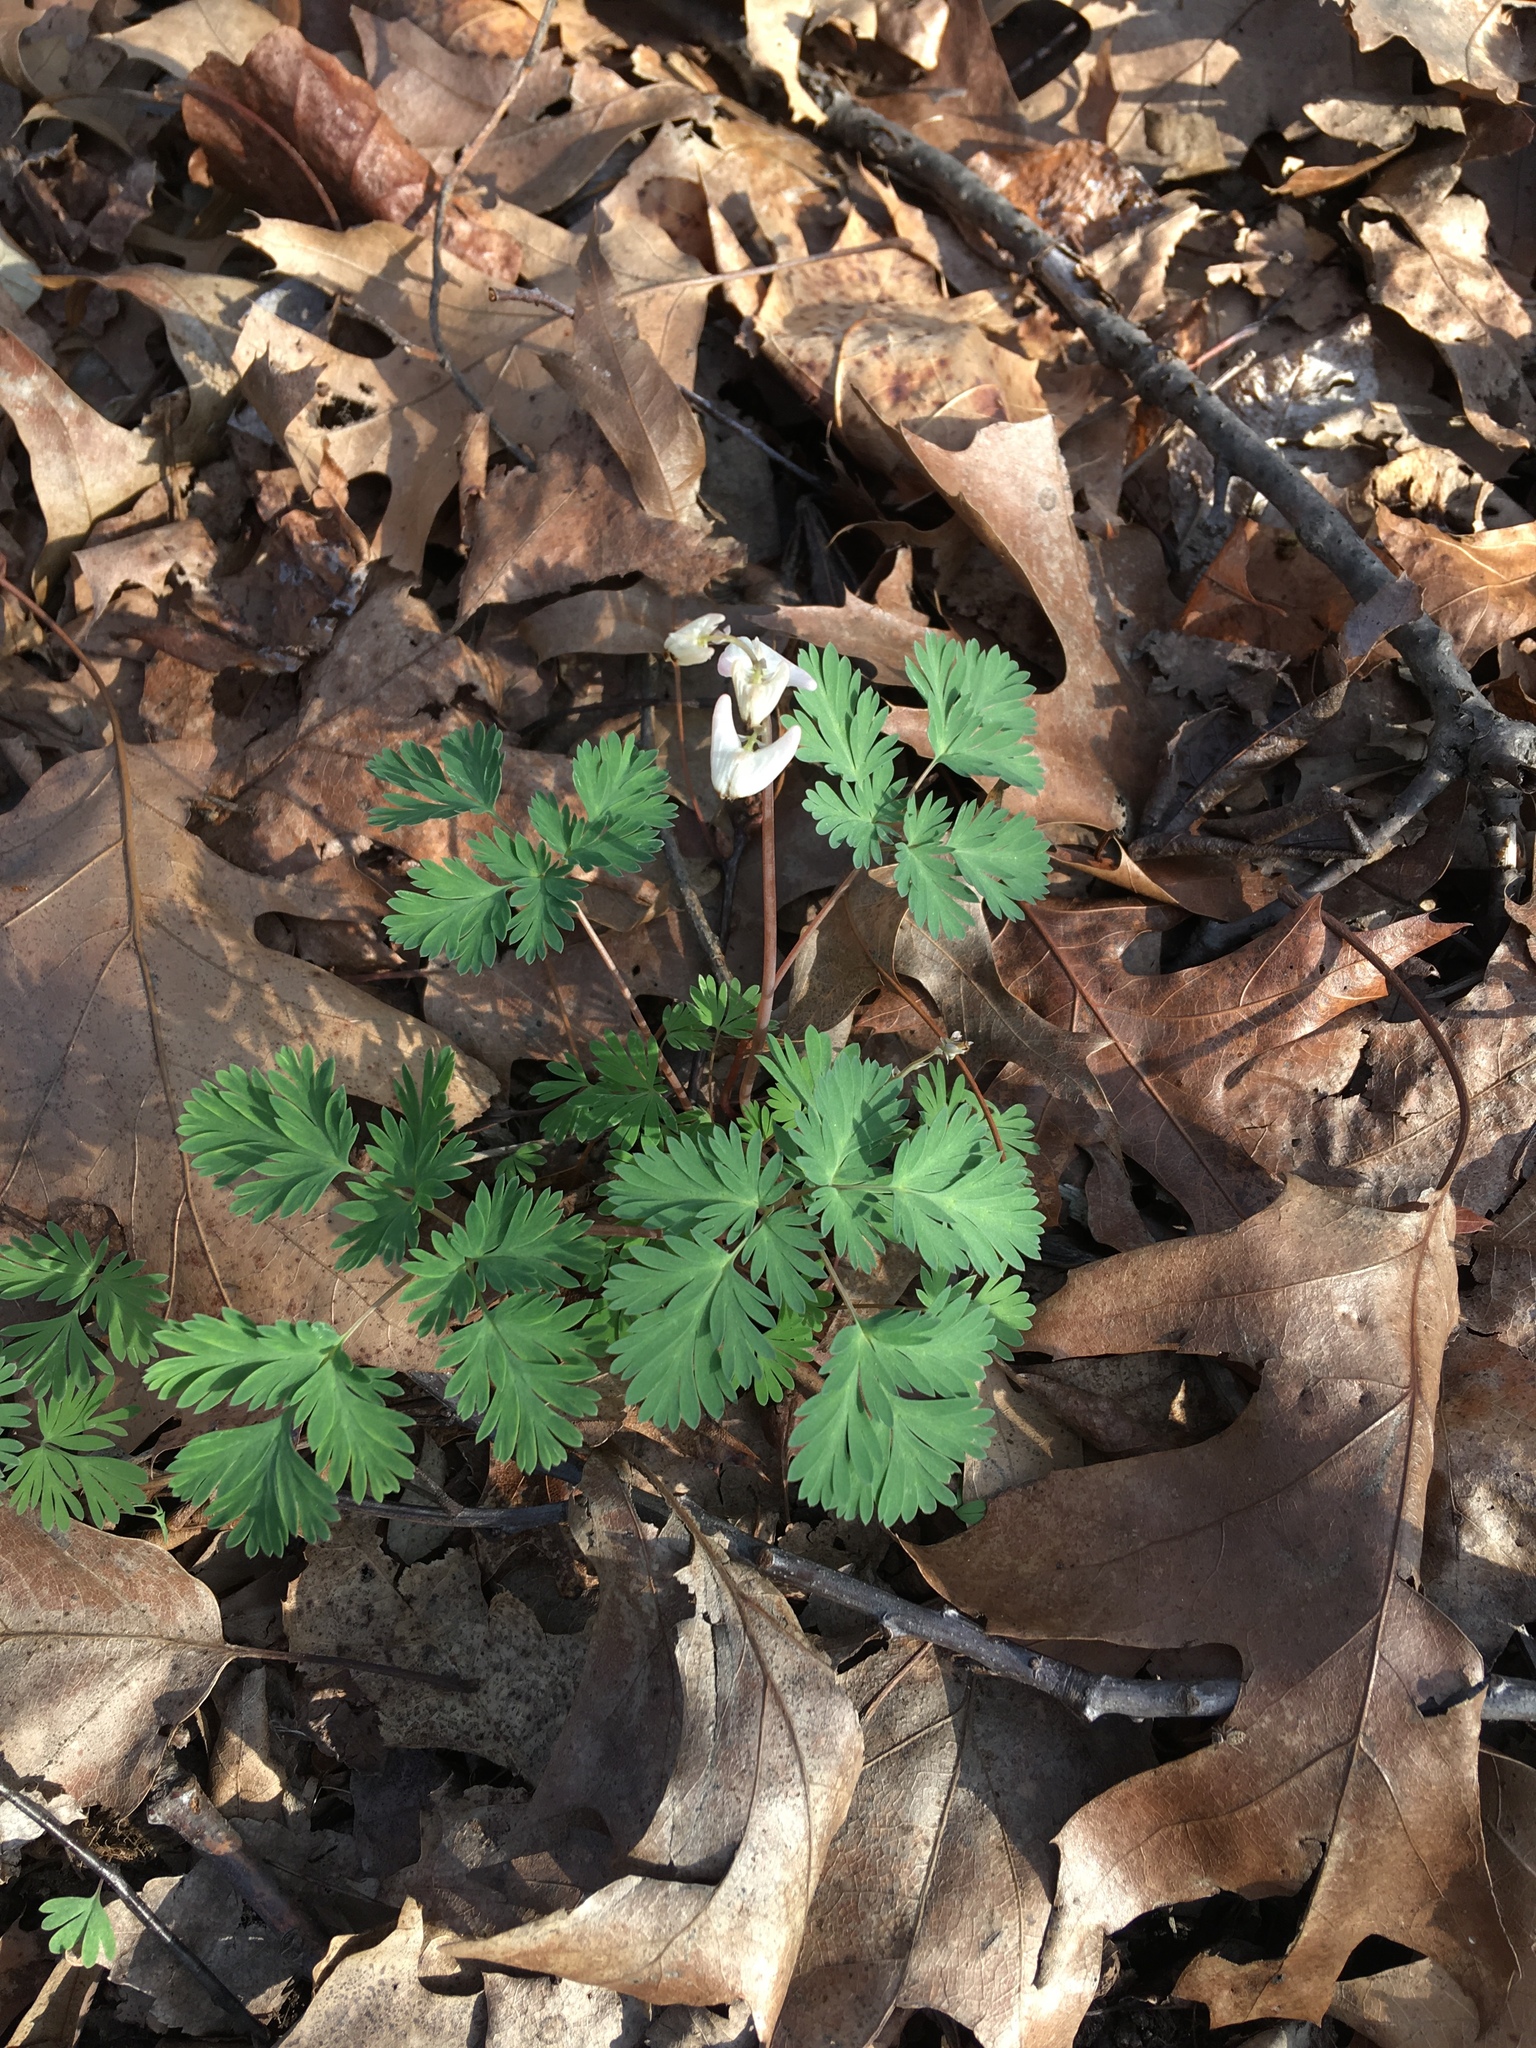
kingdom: Plantae
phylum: Tracheophyta
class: Magnoliopsida
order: Ranunculales
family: Papaveraceae
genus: Dicentra
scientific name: Dicentra cucullaria
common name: Dutchman's breeches
